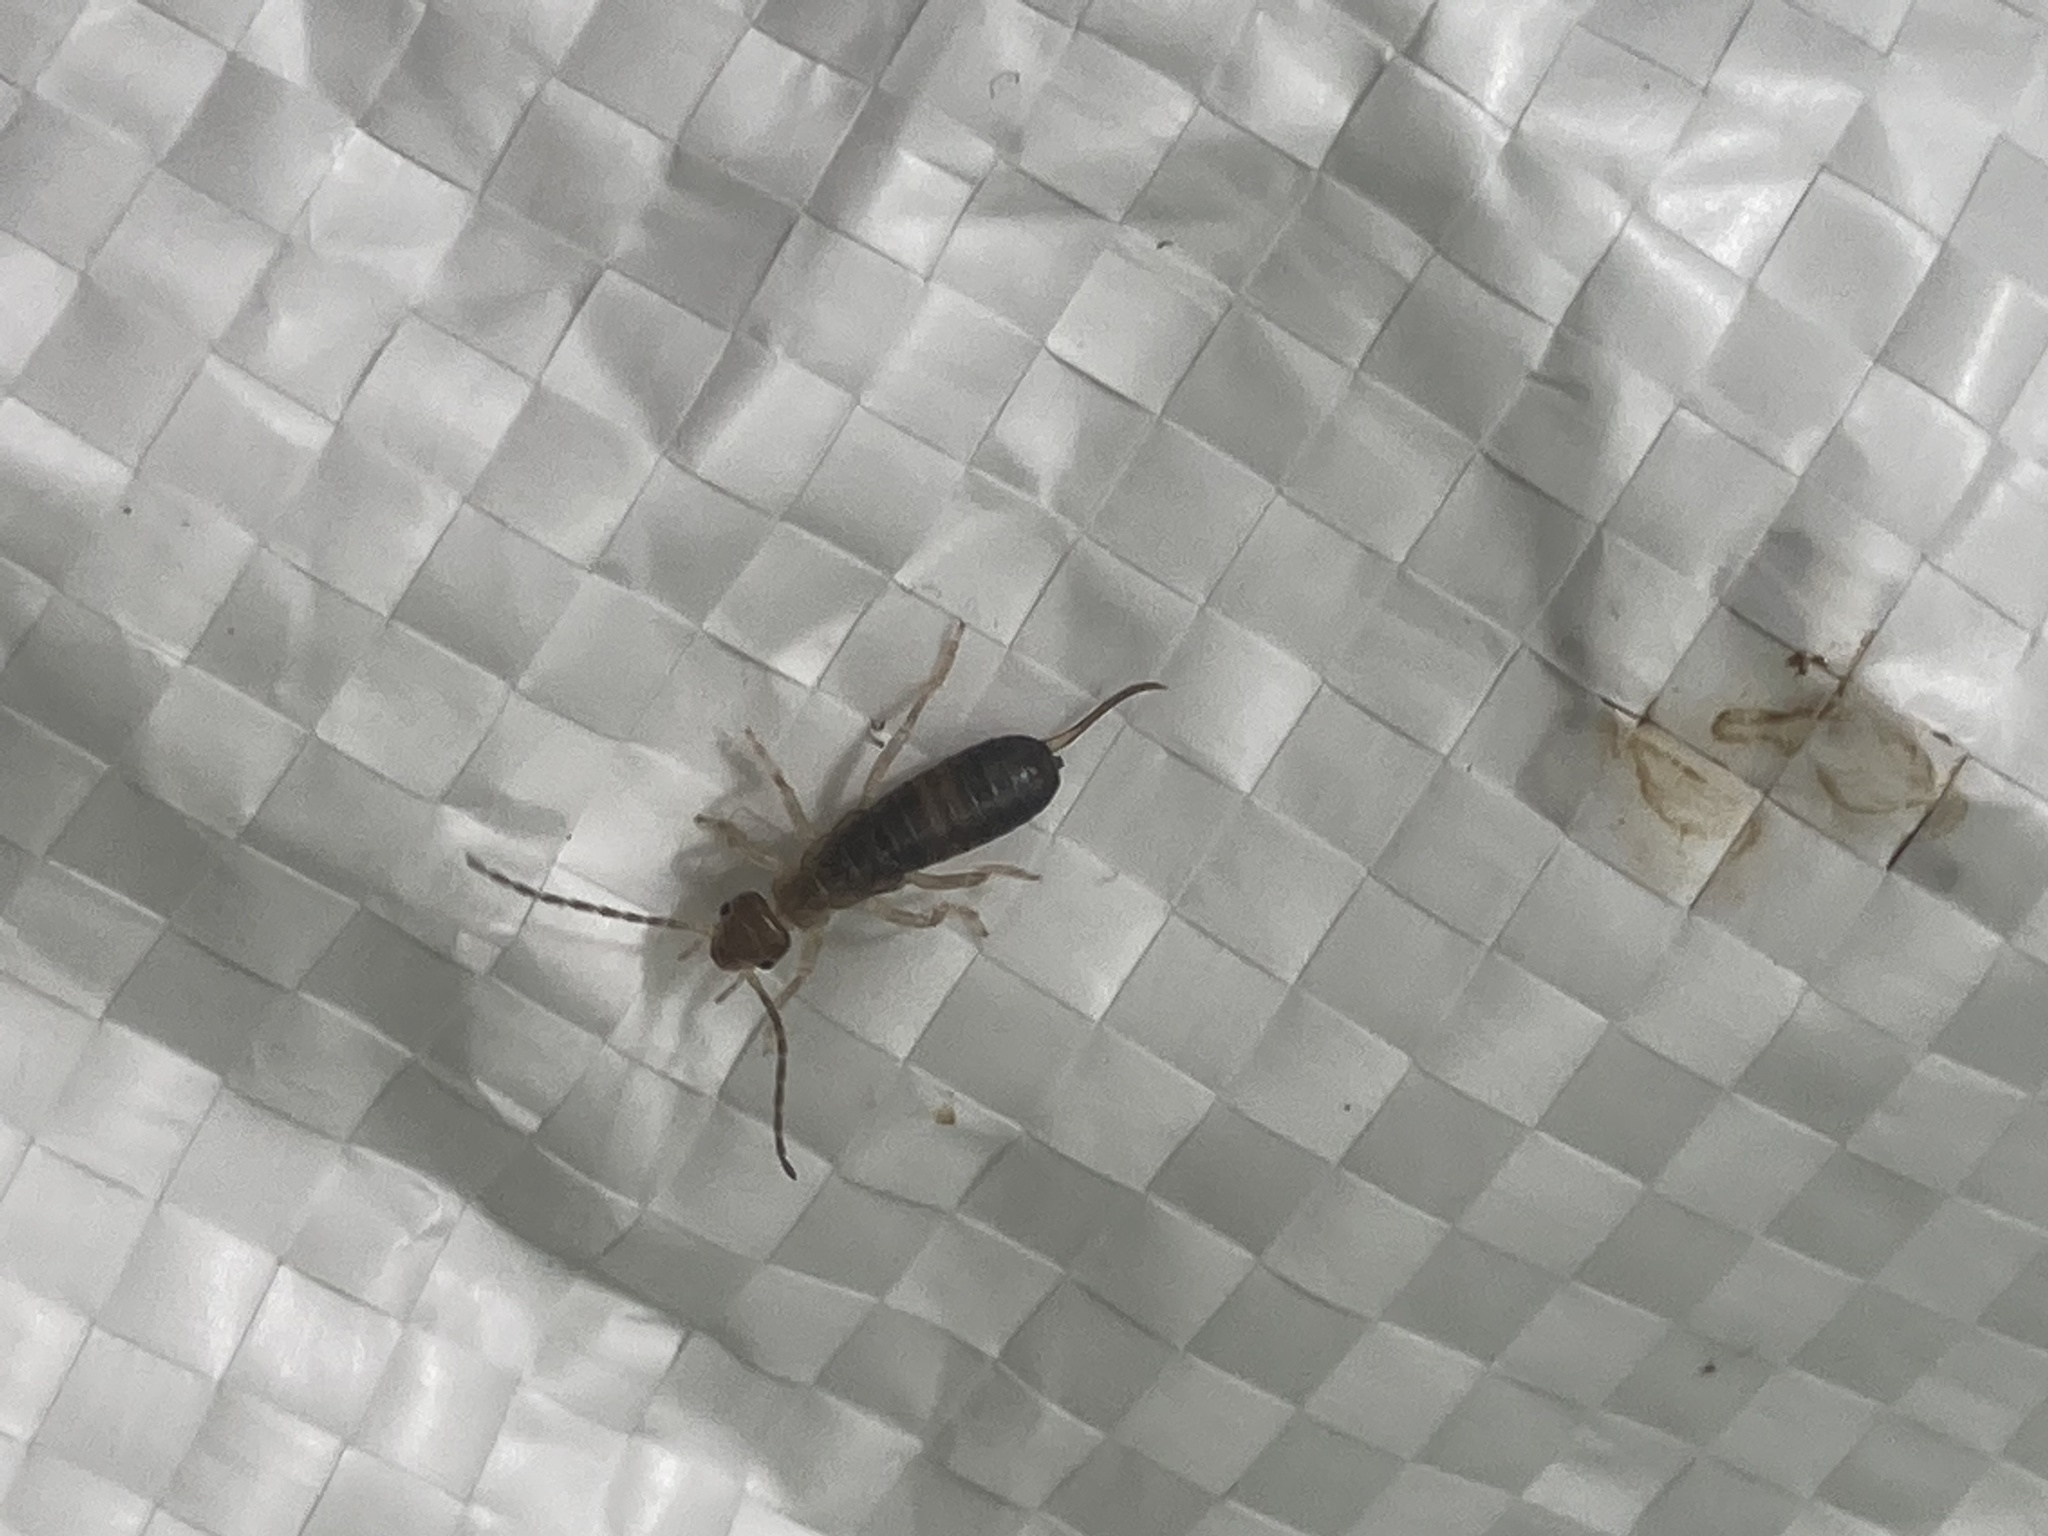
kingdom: Animalia
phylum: Arthropoda
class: Insecta
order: Dermaptera
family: Forficulidae
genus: Forficula
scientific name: Forficula
